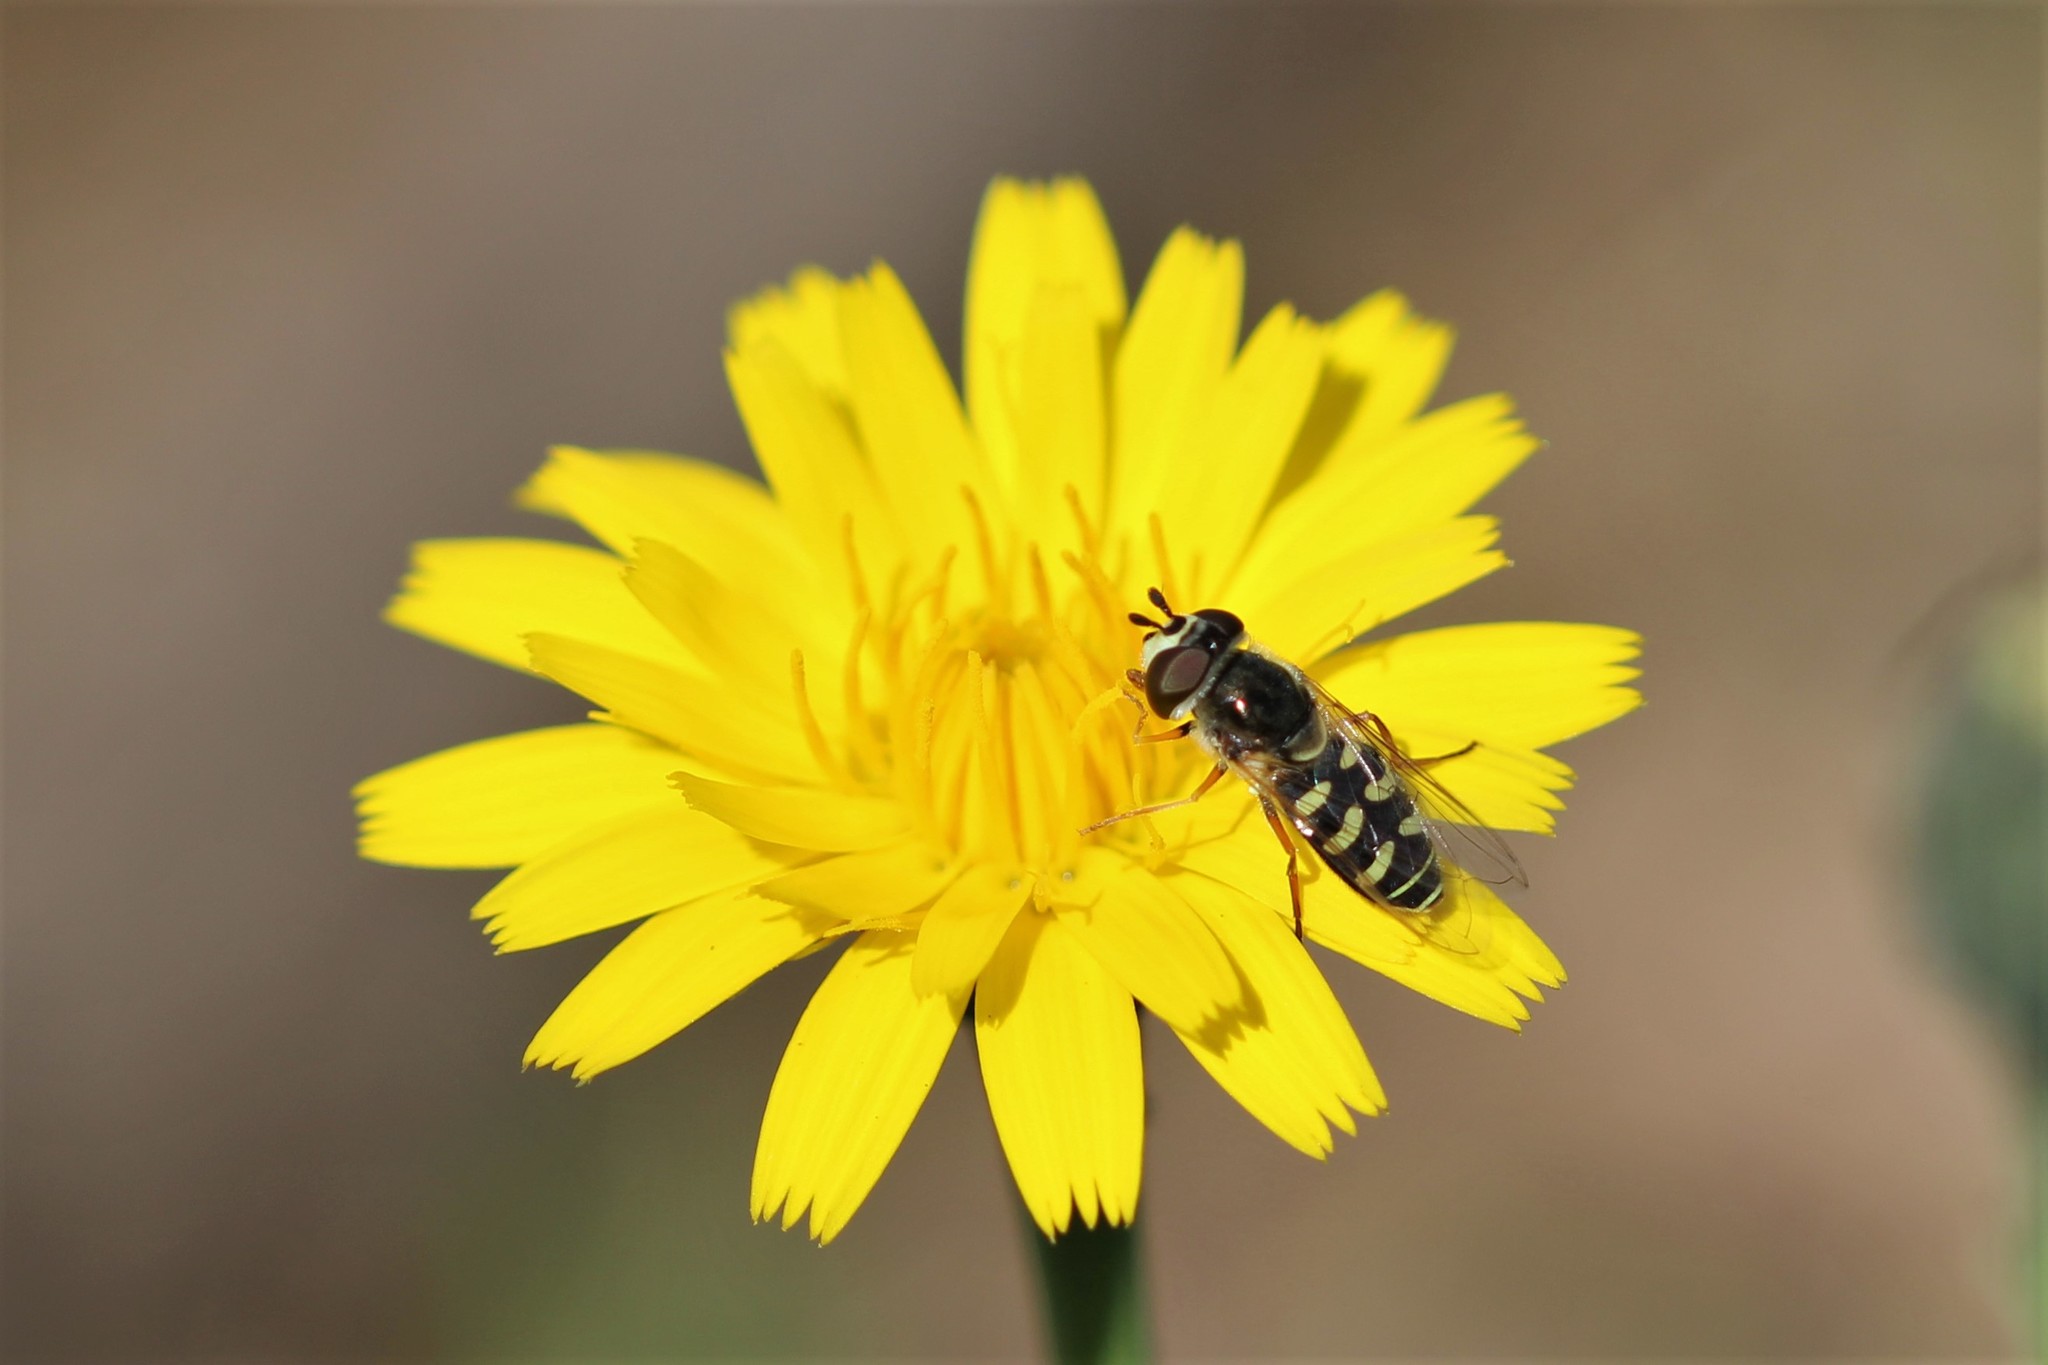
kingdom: Animalia
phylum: Arthropoda
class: Insecta
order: Diptera
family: Syrphidae
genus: Eupeodes
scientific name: Eupeodes volucris
